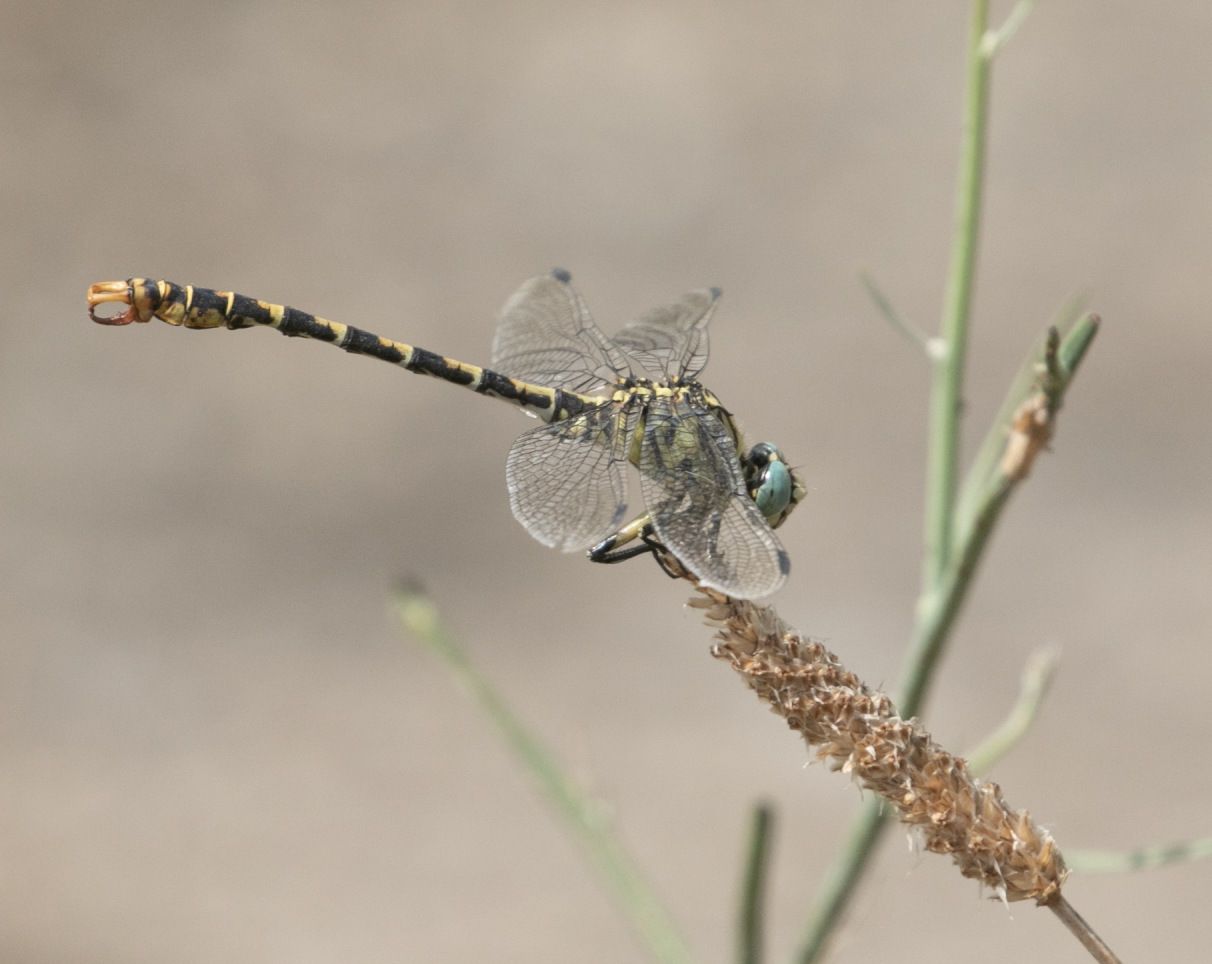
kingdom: Animalia
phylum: Arthropoda
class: Insecta
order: Odonata
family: Gomphidae
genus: Onychogomphus
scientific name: Onychogomphus forcipatus
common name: Small pincertail
